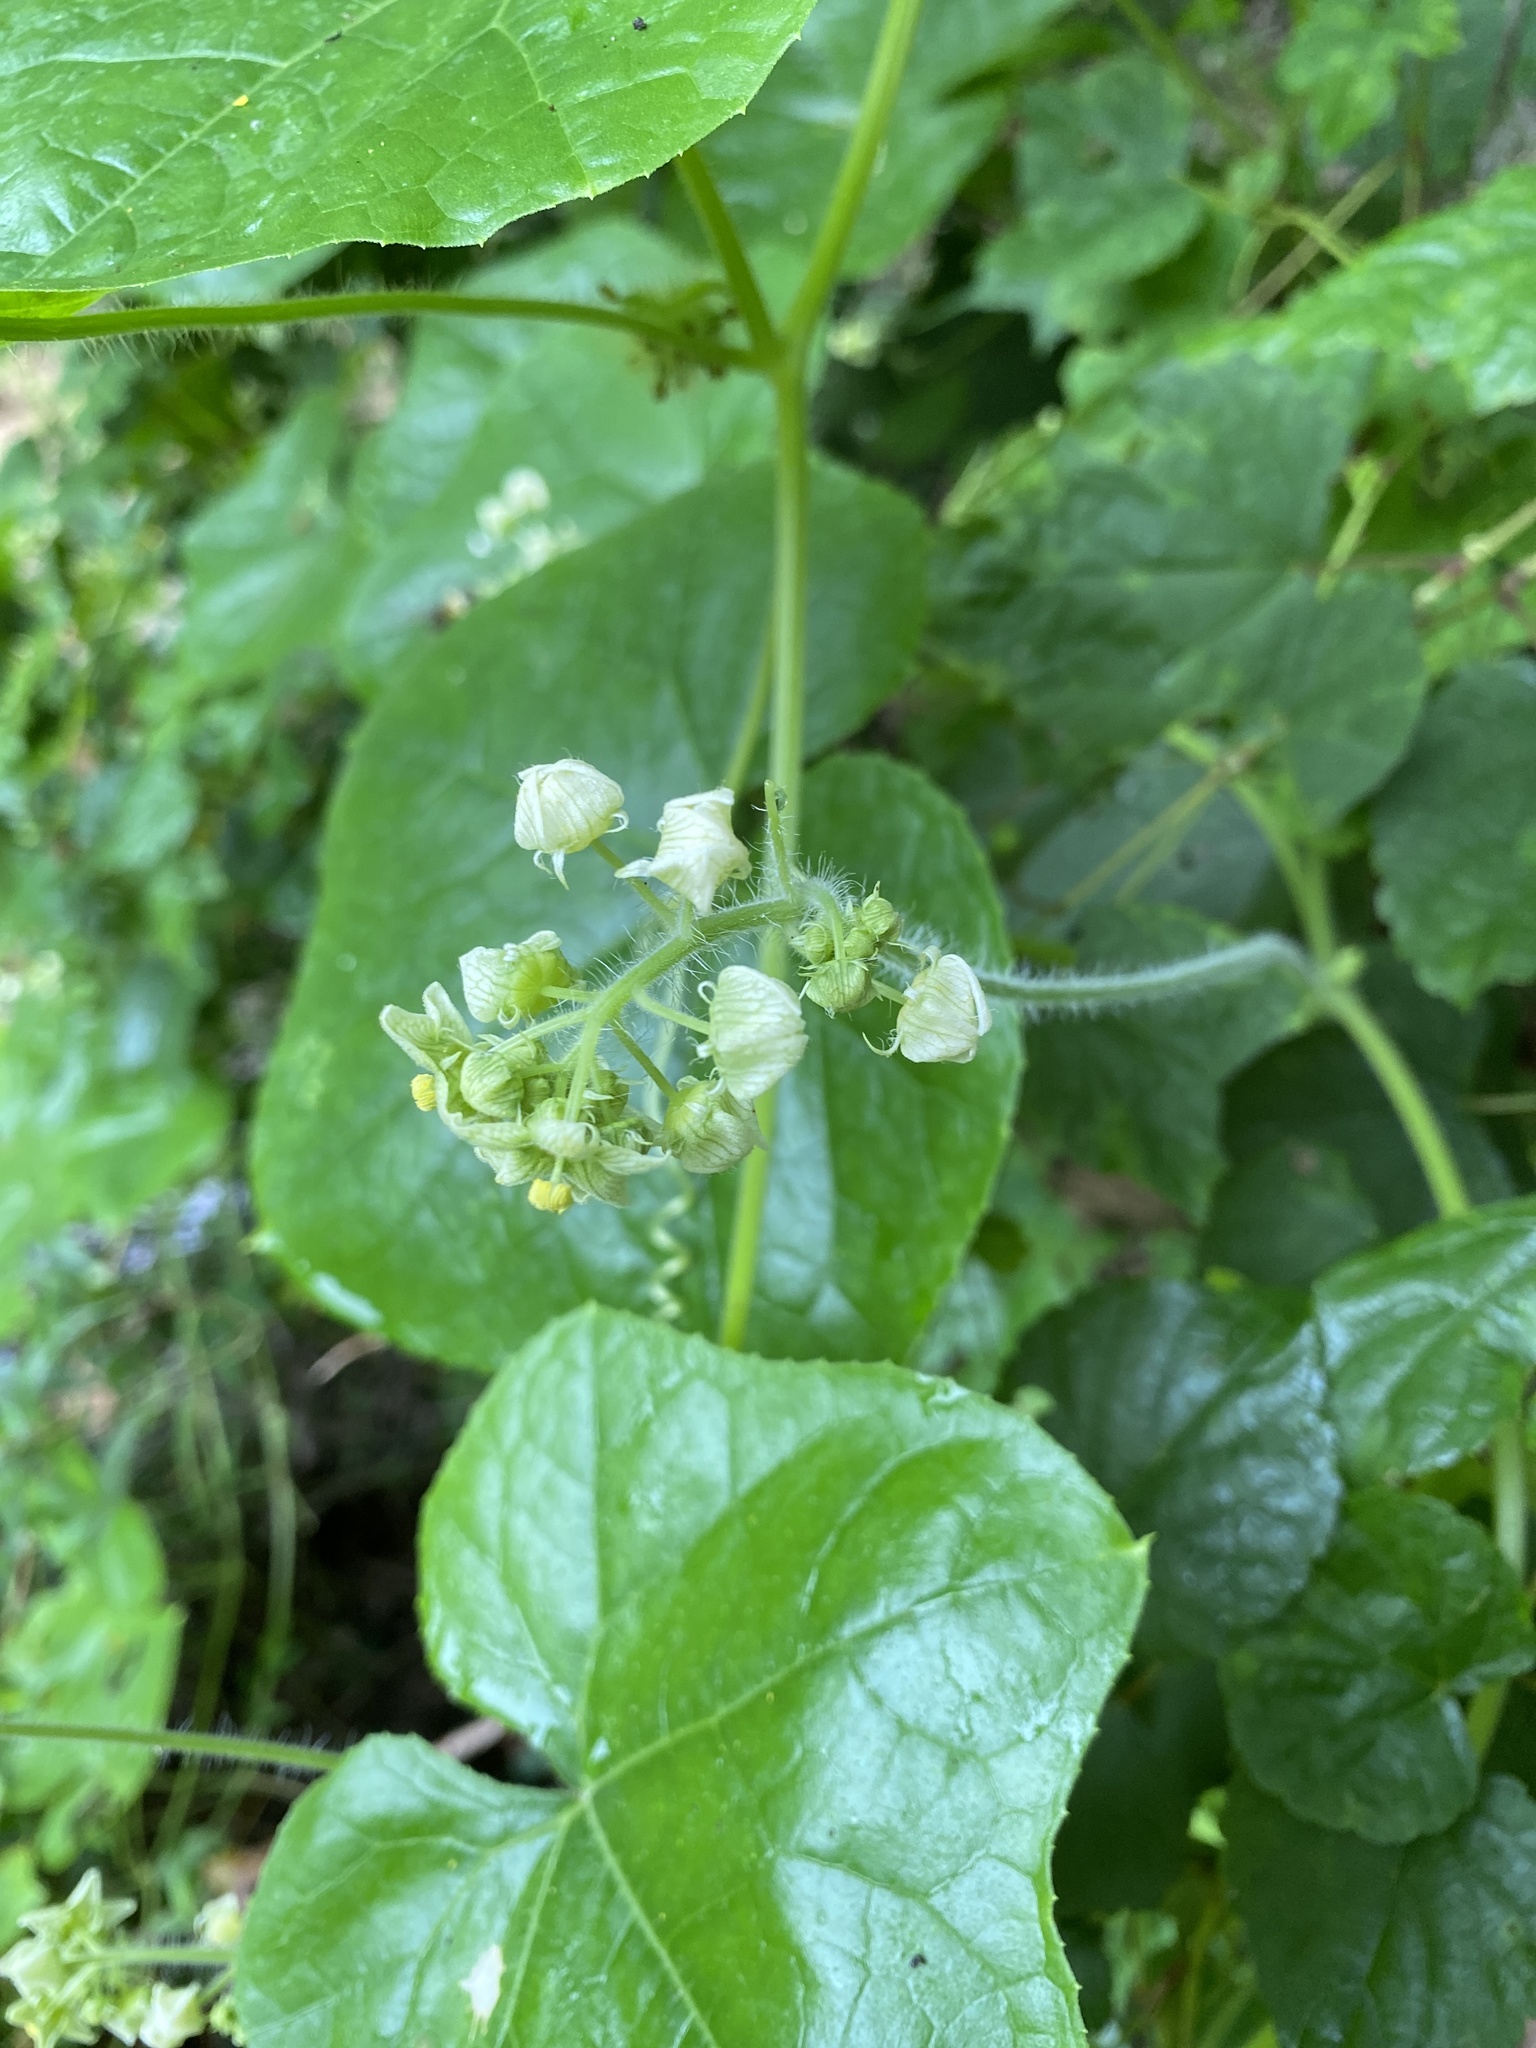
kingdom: Plantae
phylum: Tracheophyta
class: Magnoliopsida
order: Cucurbitales
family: Cucurbitaceae
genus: Sicyos
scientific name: Sicyos angulatus
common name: Angled burr cucumber
